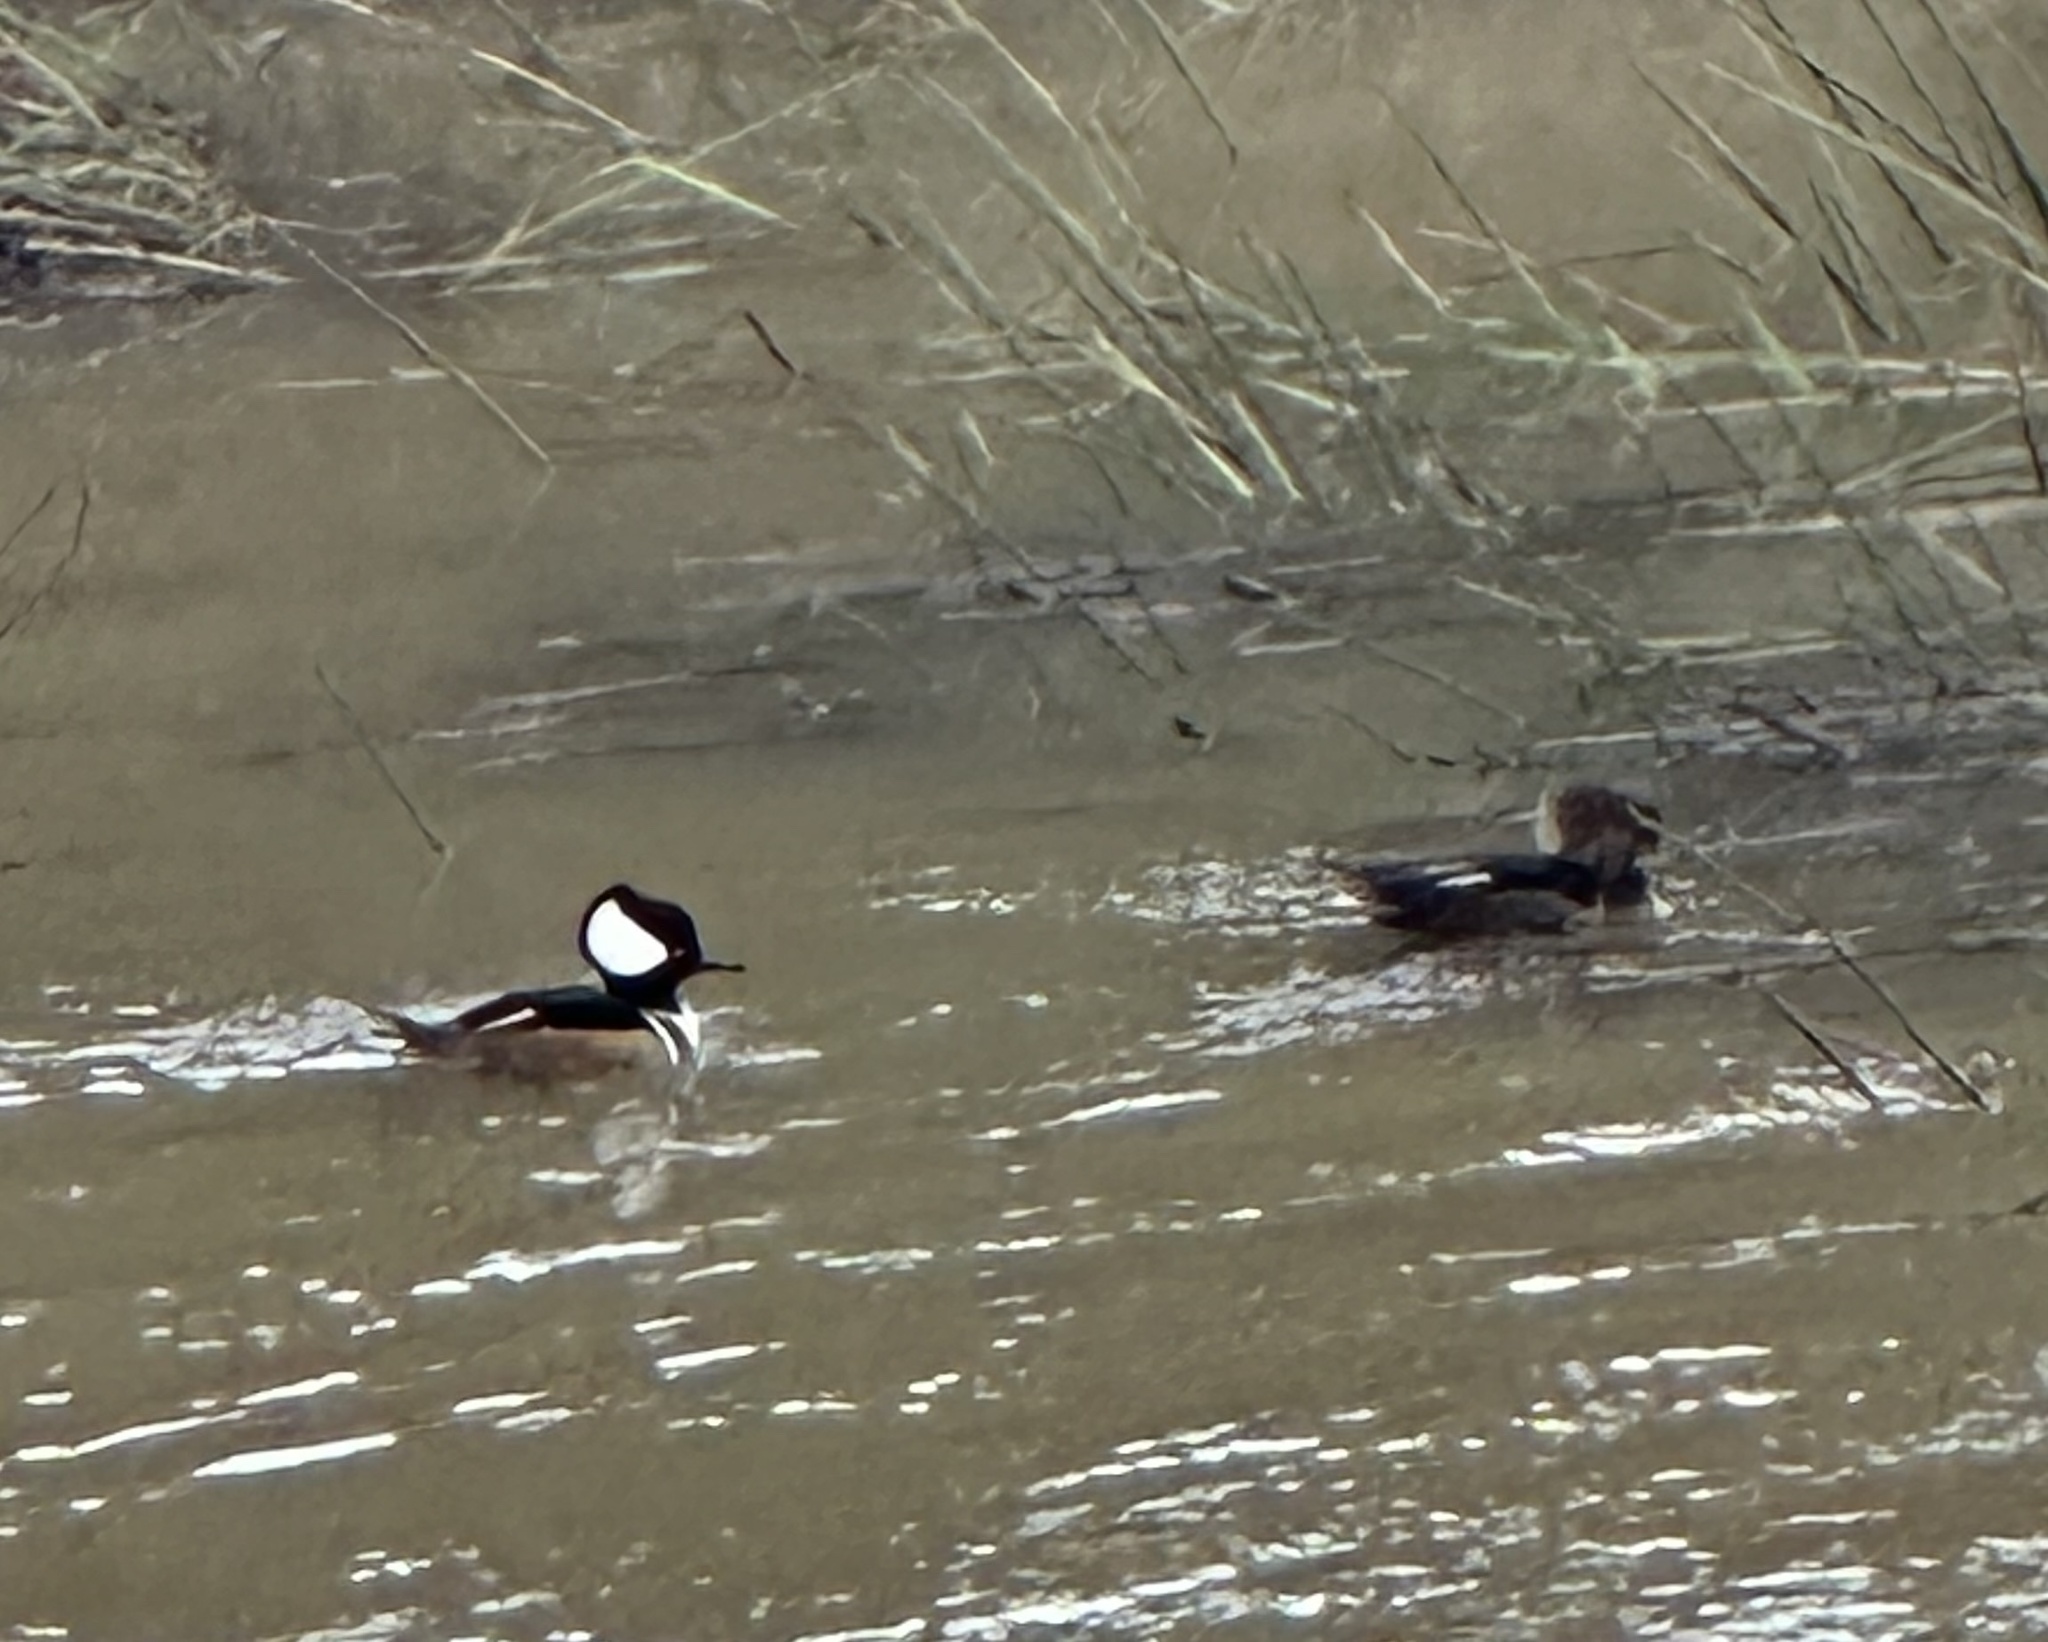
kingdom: Animalia
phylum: Chordata
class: Aves
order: Anseriformes
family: Anatidae
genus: Lophodytes
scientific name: Lophodytes cucullatus
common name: Hooded merganser
